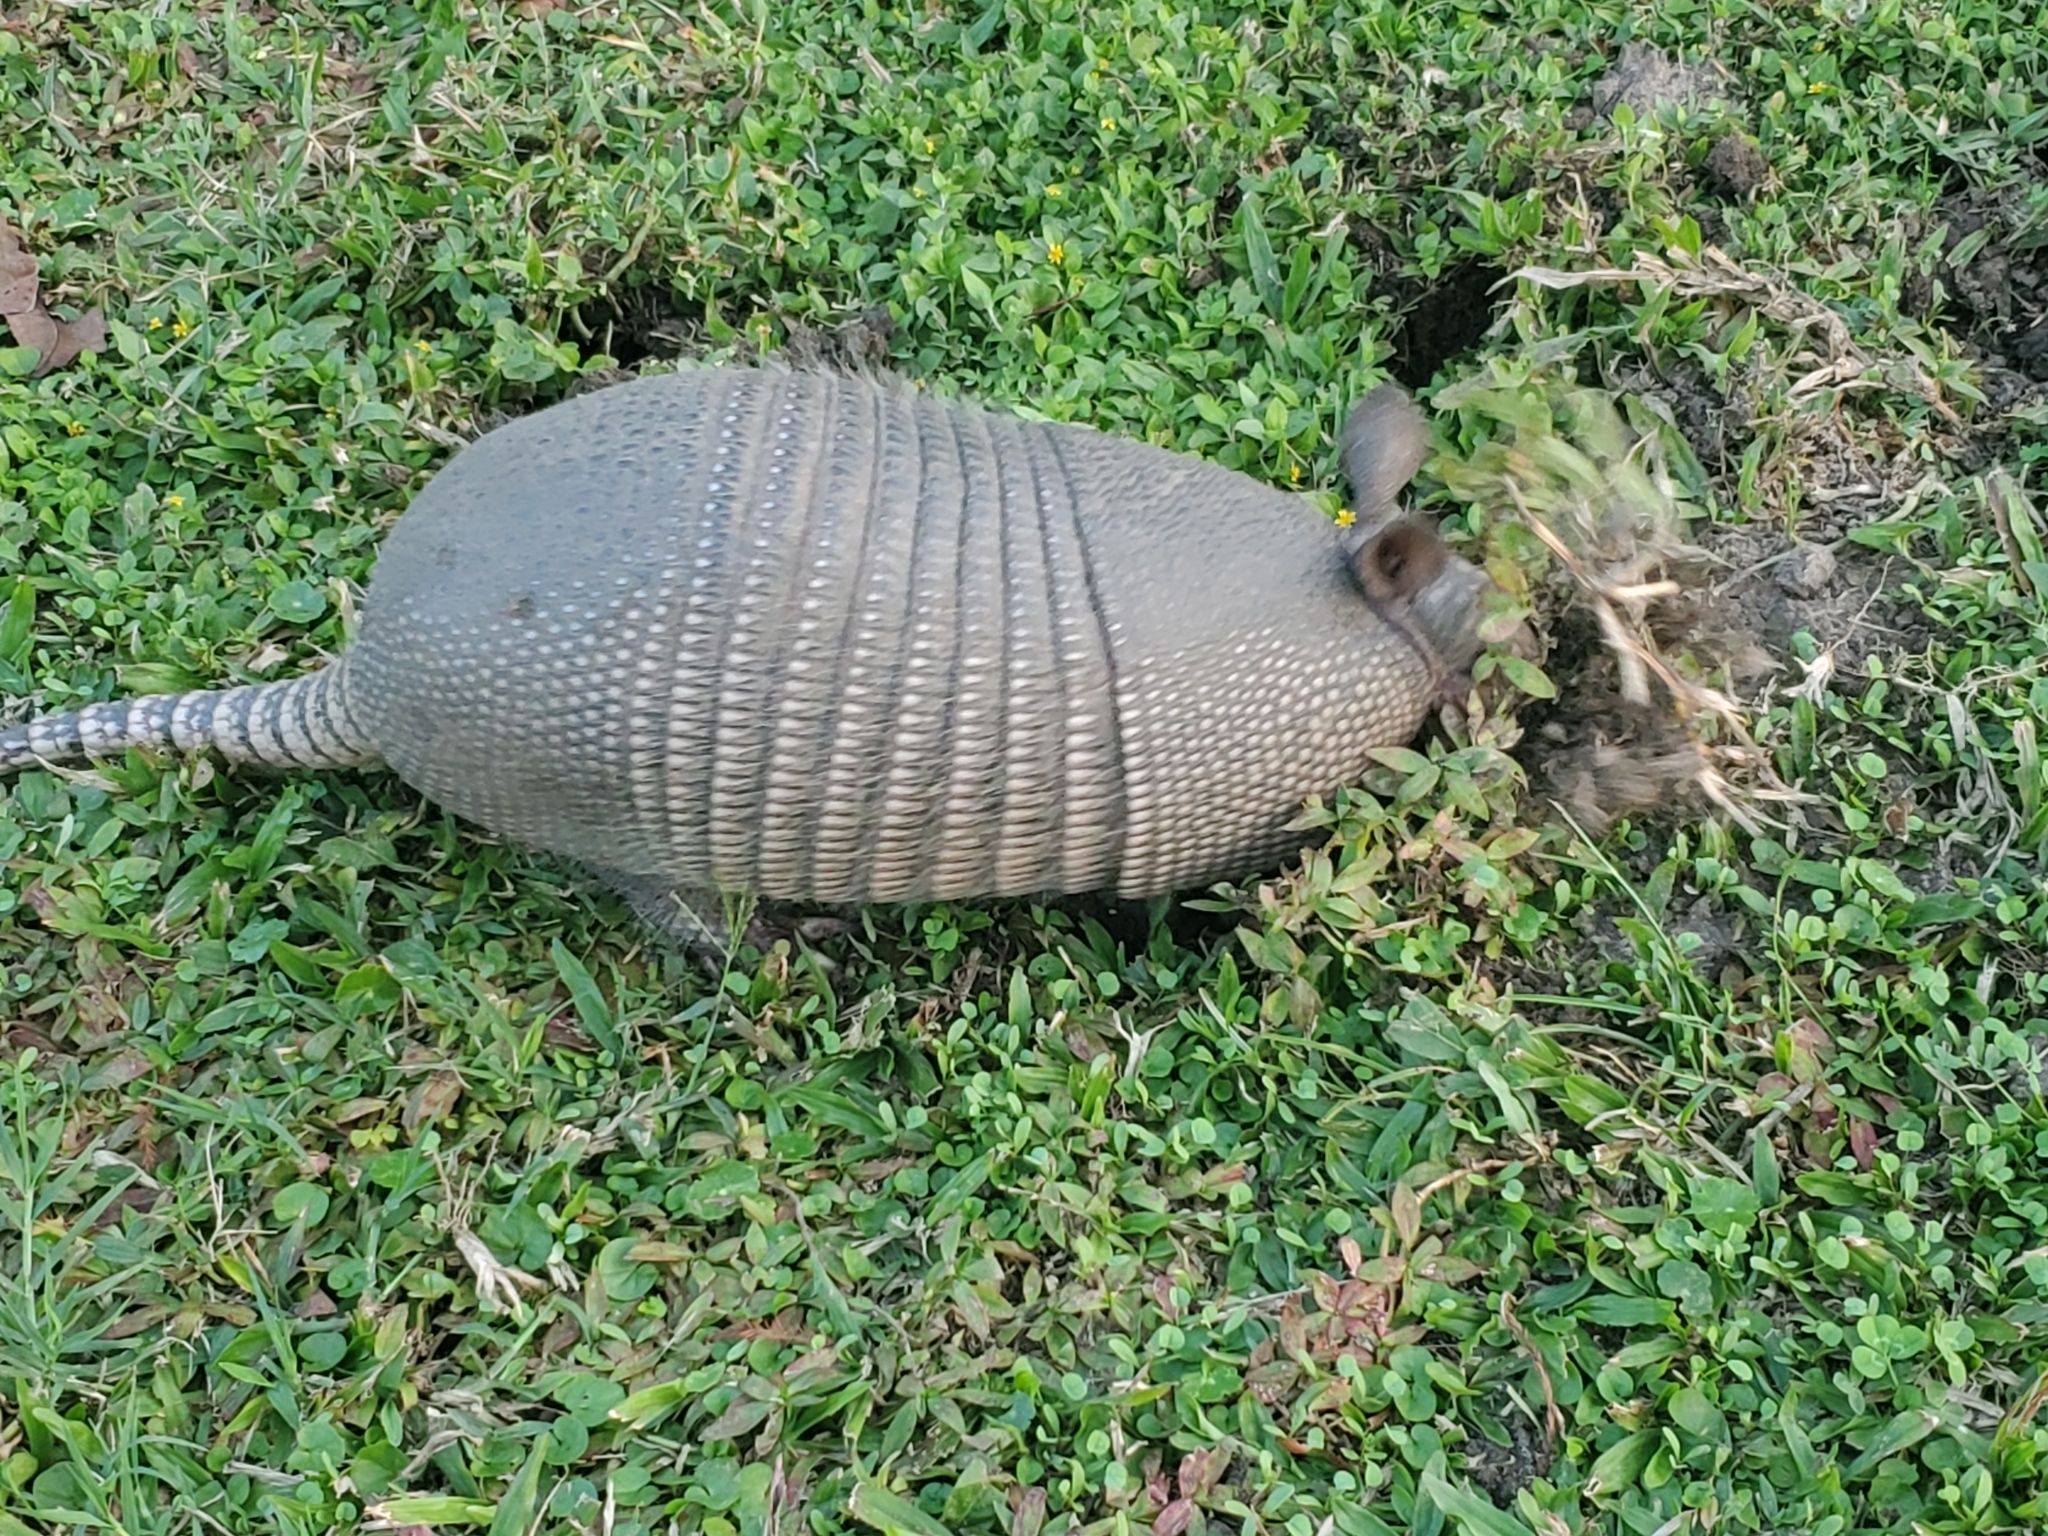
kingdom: Animalia
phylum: Chordata
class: Mammalia
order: Cingulata
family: Dasypodidae
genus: Dasypus
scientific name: Dasypus novemcinctus
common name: Nine-banded armadillo
